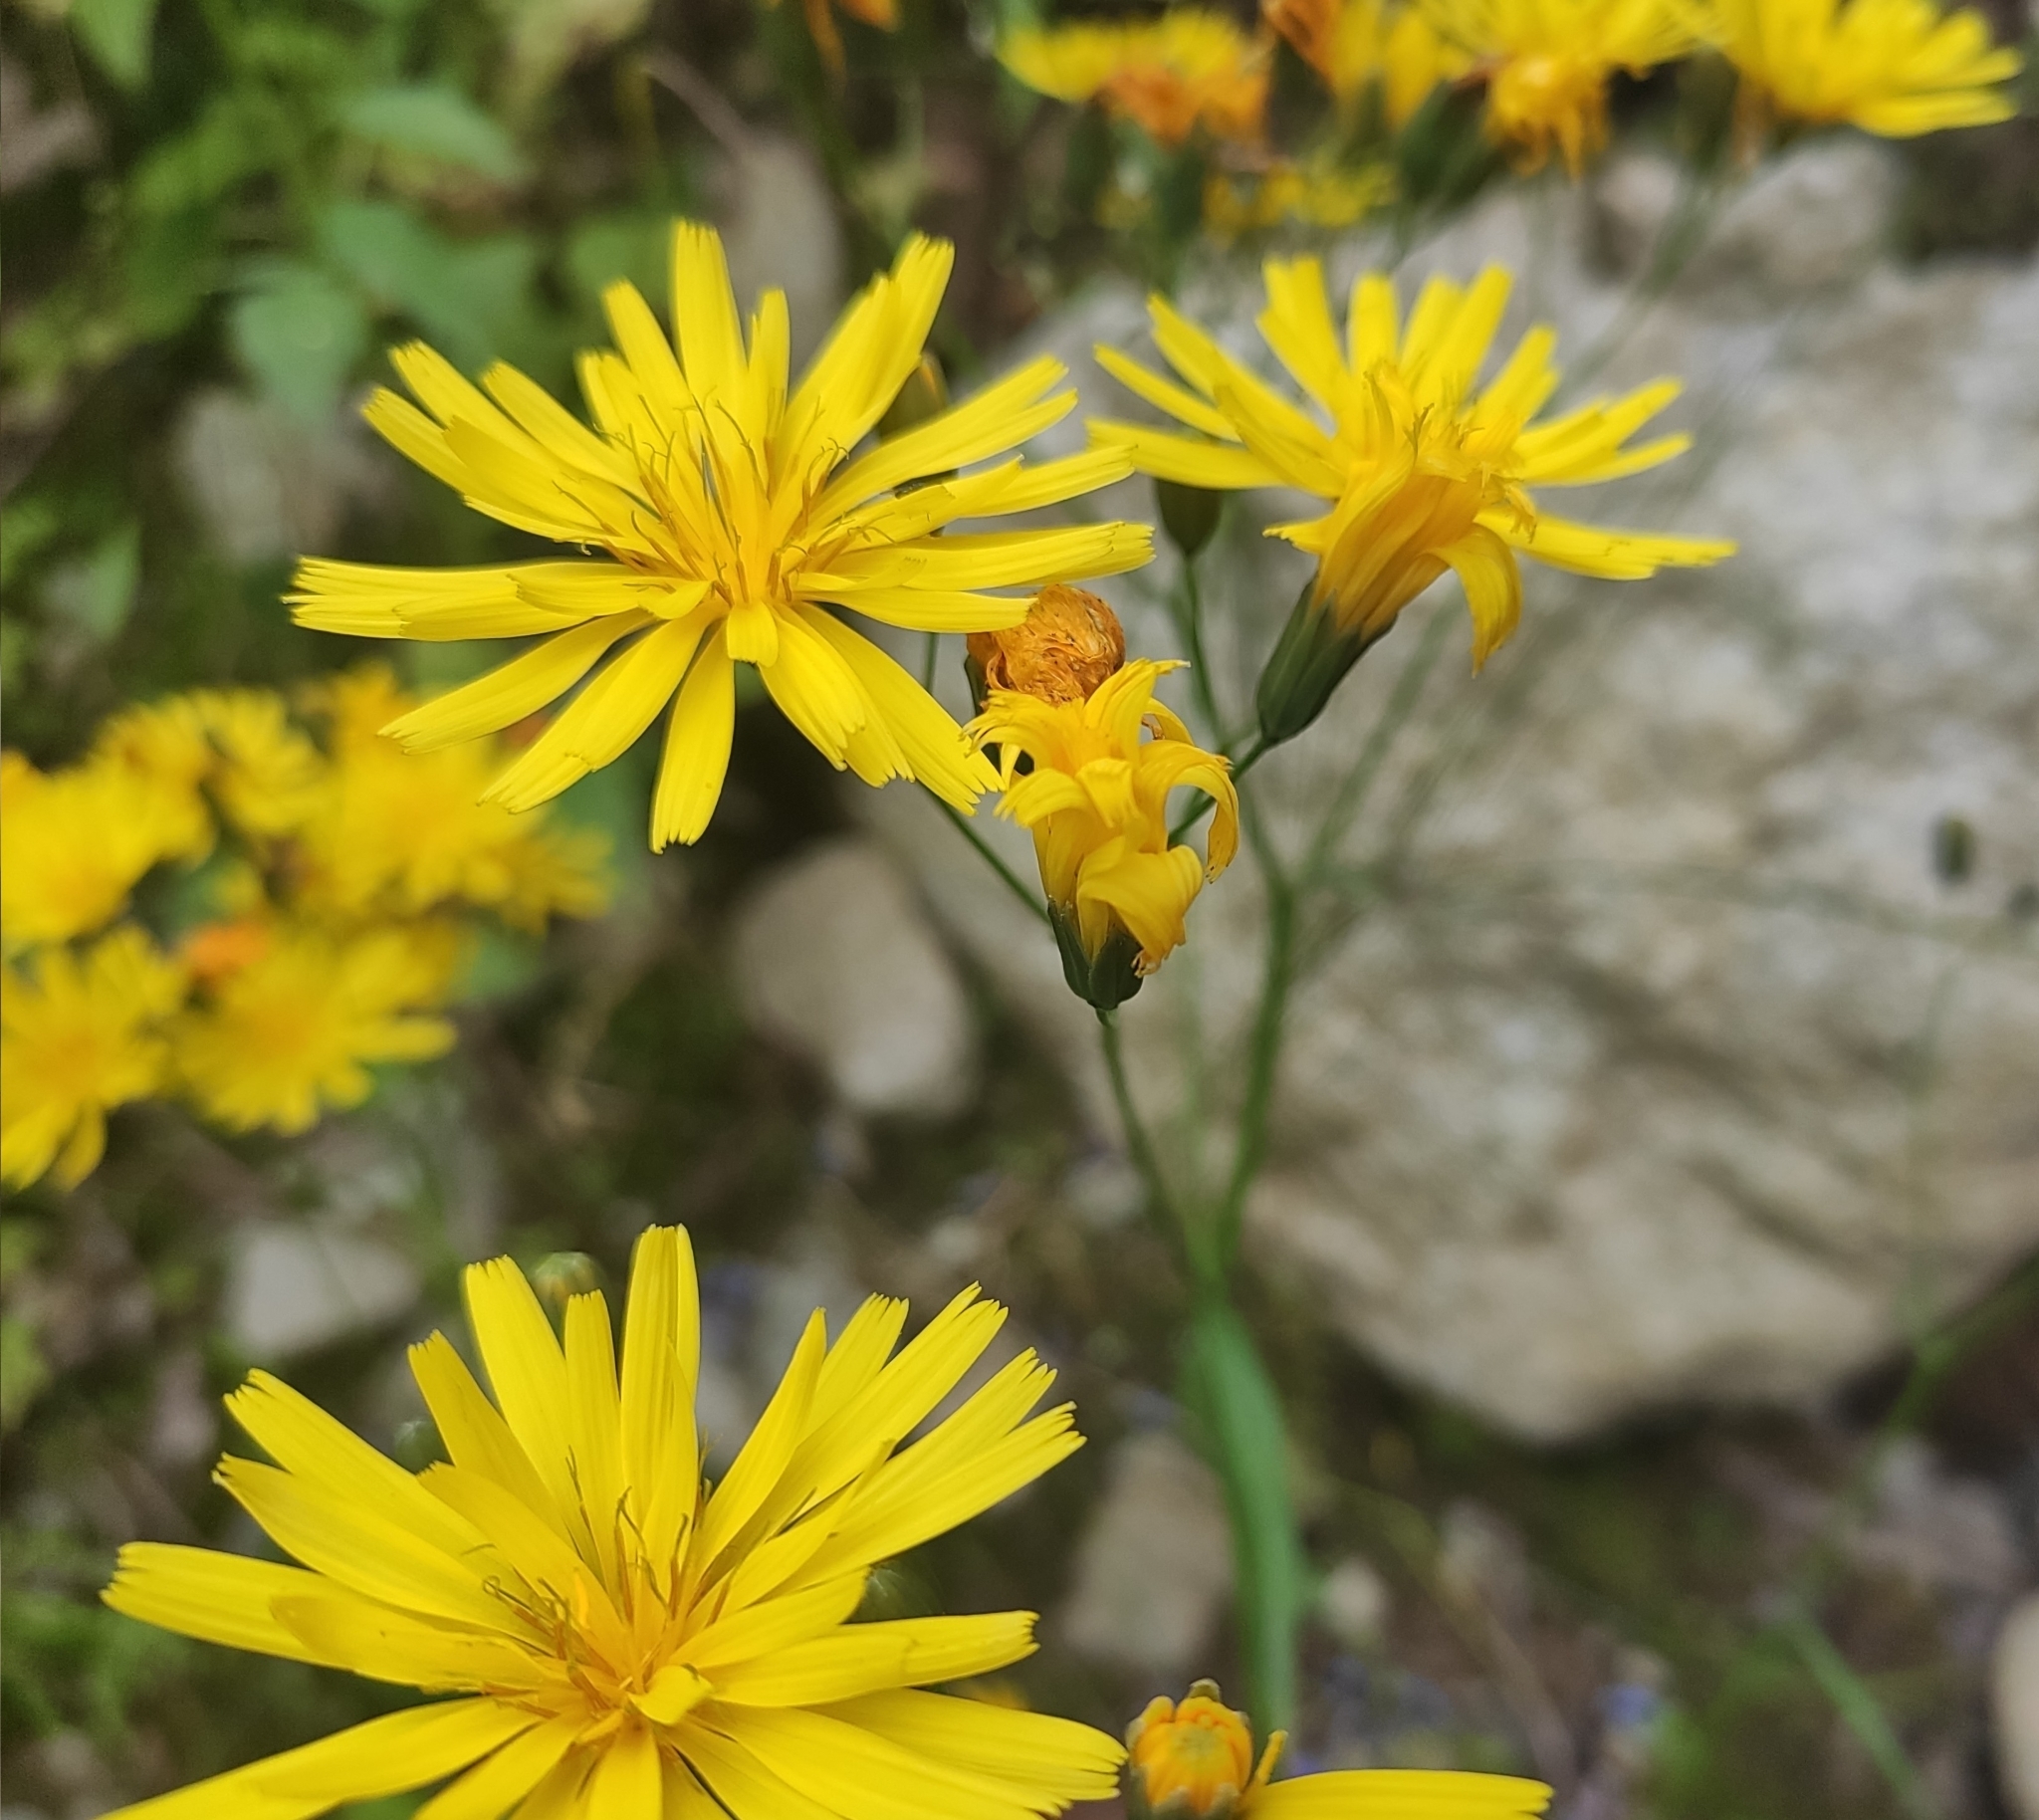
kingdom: Plantae
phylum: Tracheophyta
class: Magnoliopsida
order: Asterales
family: Asteraceae
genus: Lapsana
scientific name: Lapsana communis
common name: Nipplewort
